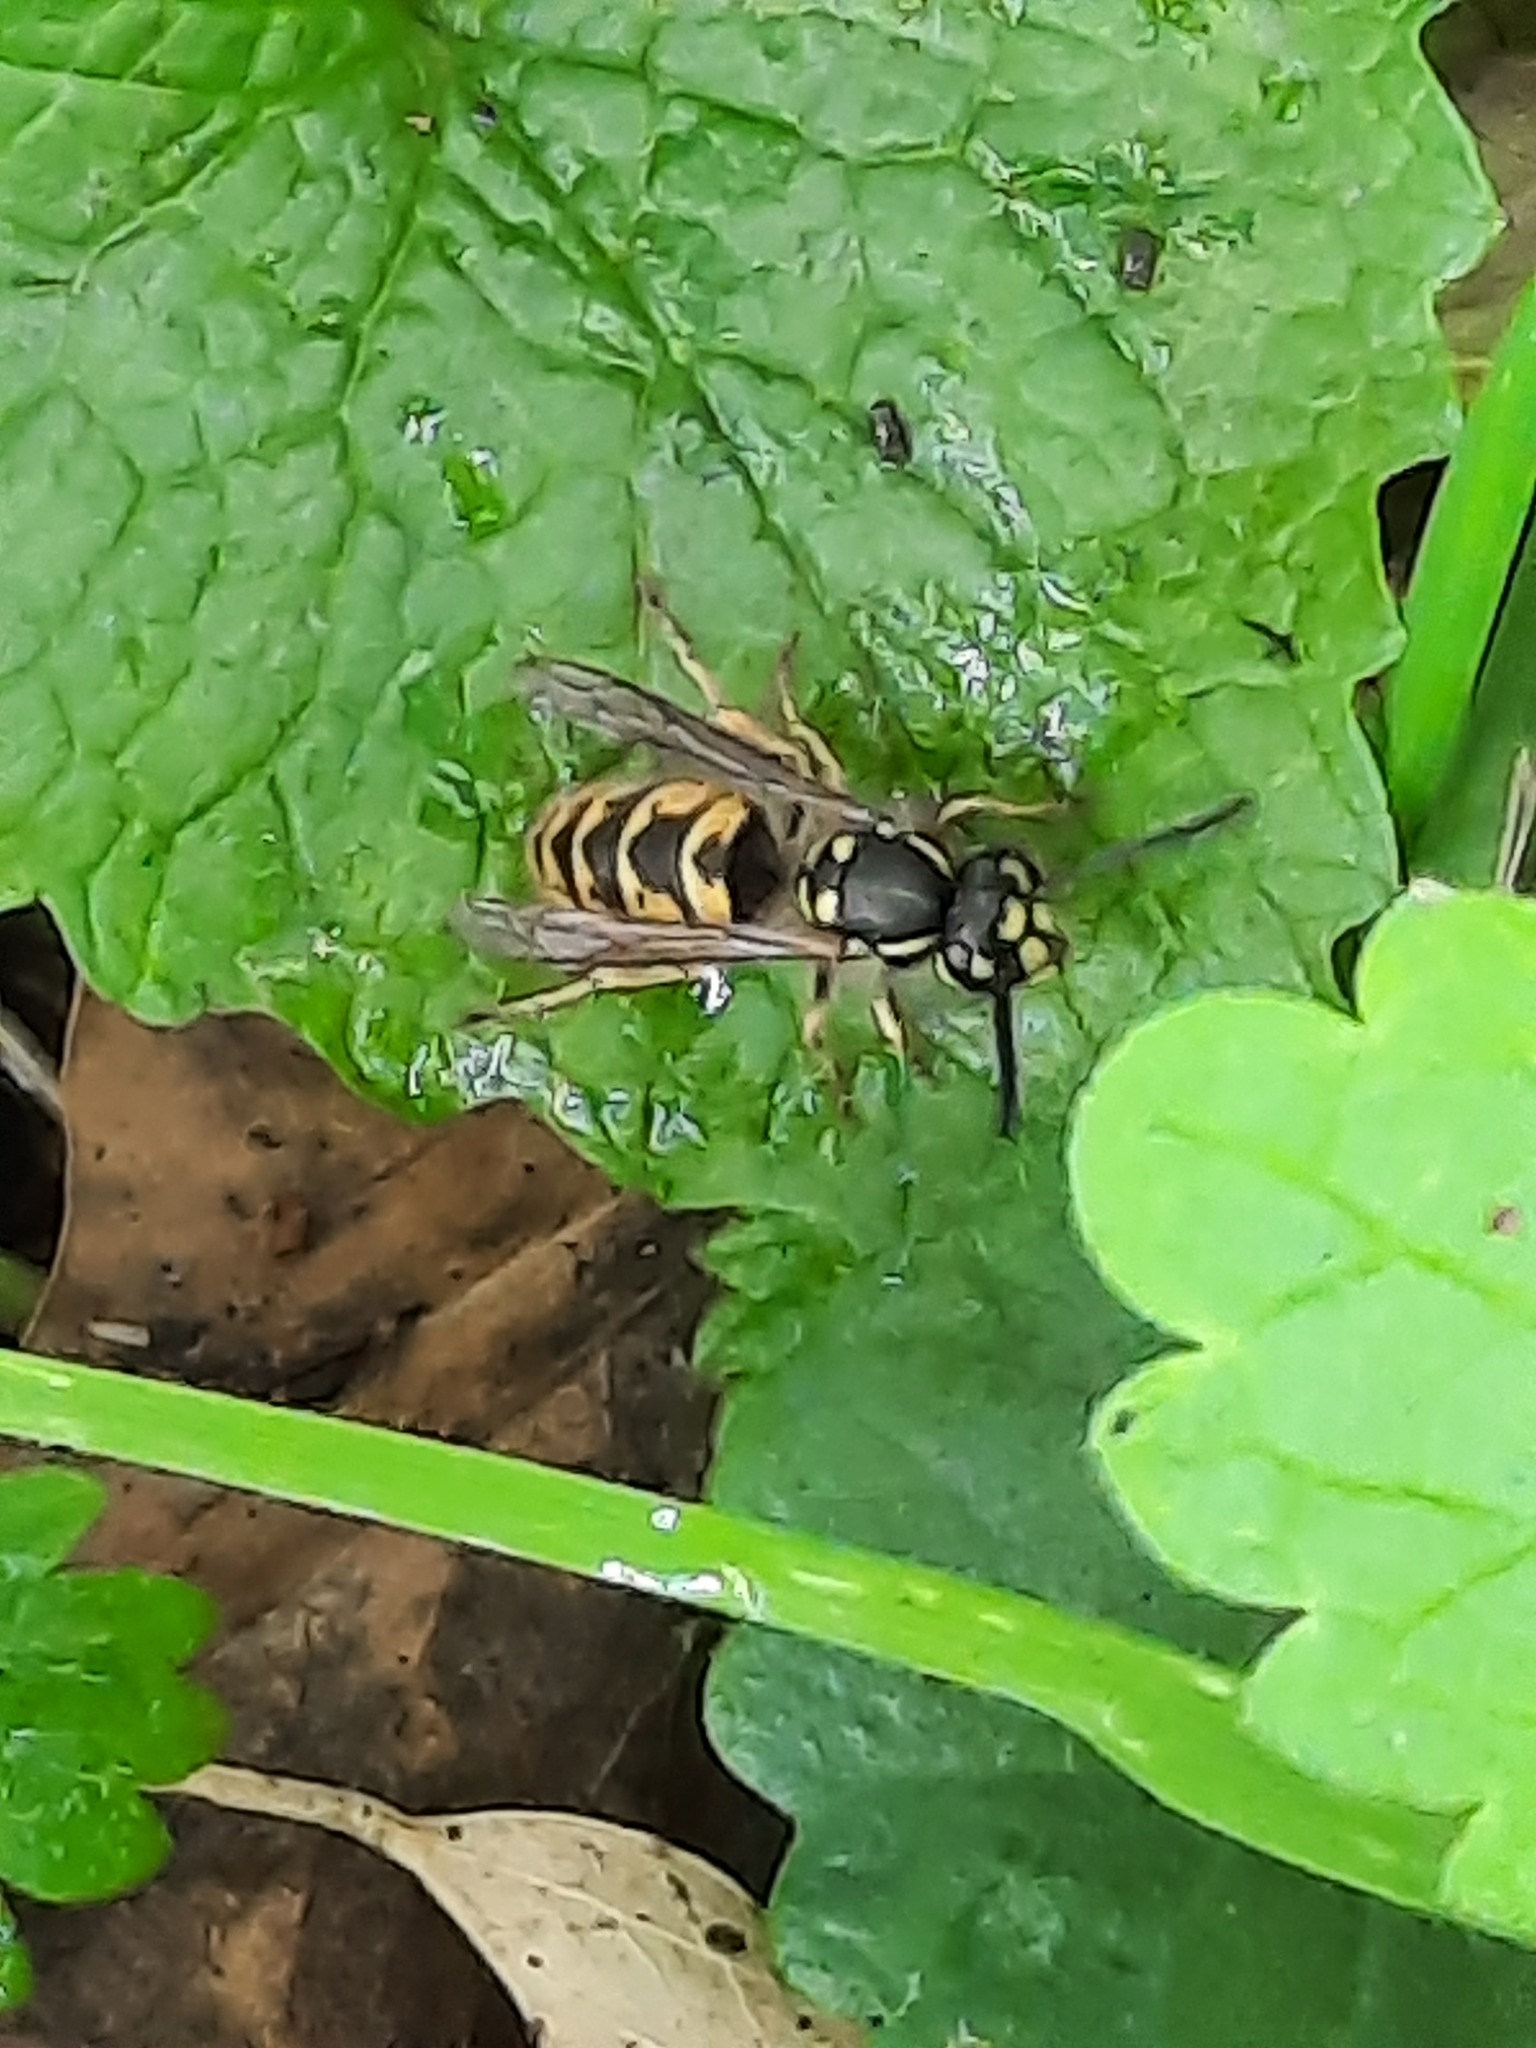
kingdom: Animalia
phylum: Arthropoda
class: Insecta
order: Hymenoptera
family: Vespidae
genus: Vespula
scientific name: Vespula vulgaris
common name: Common wasp
